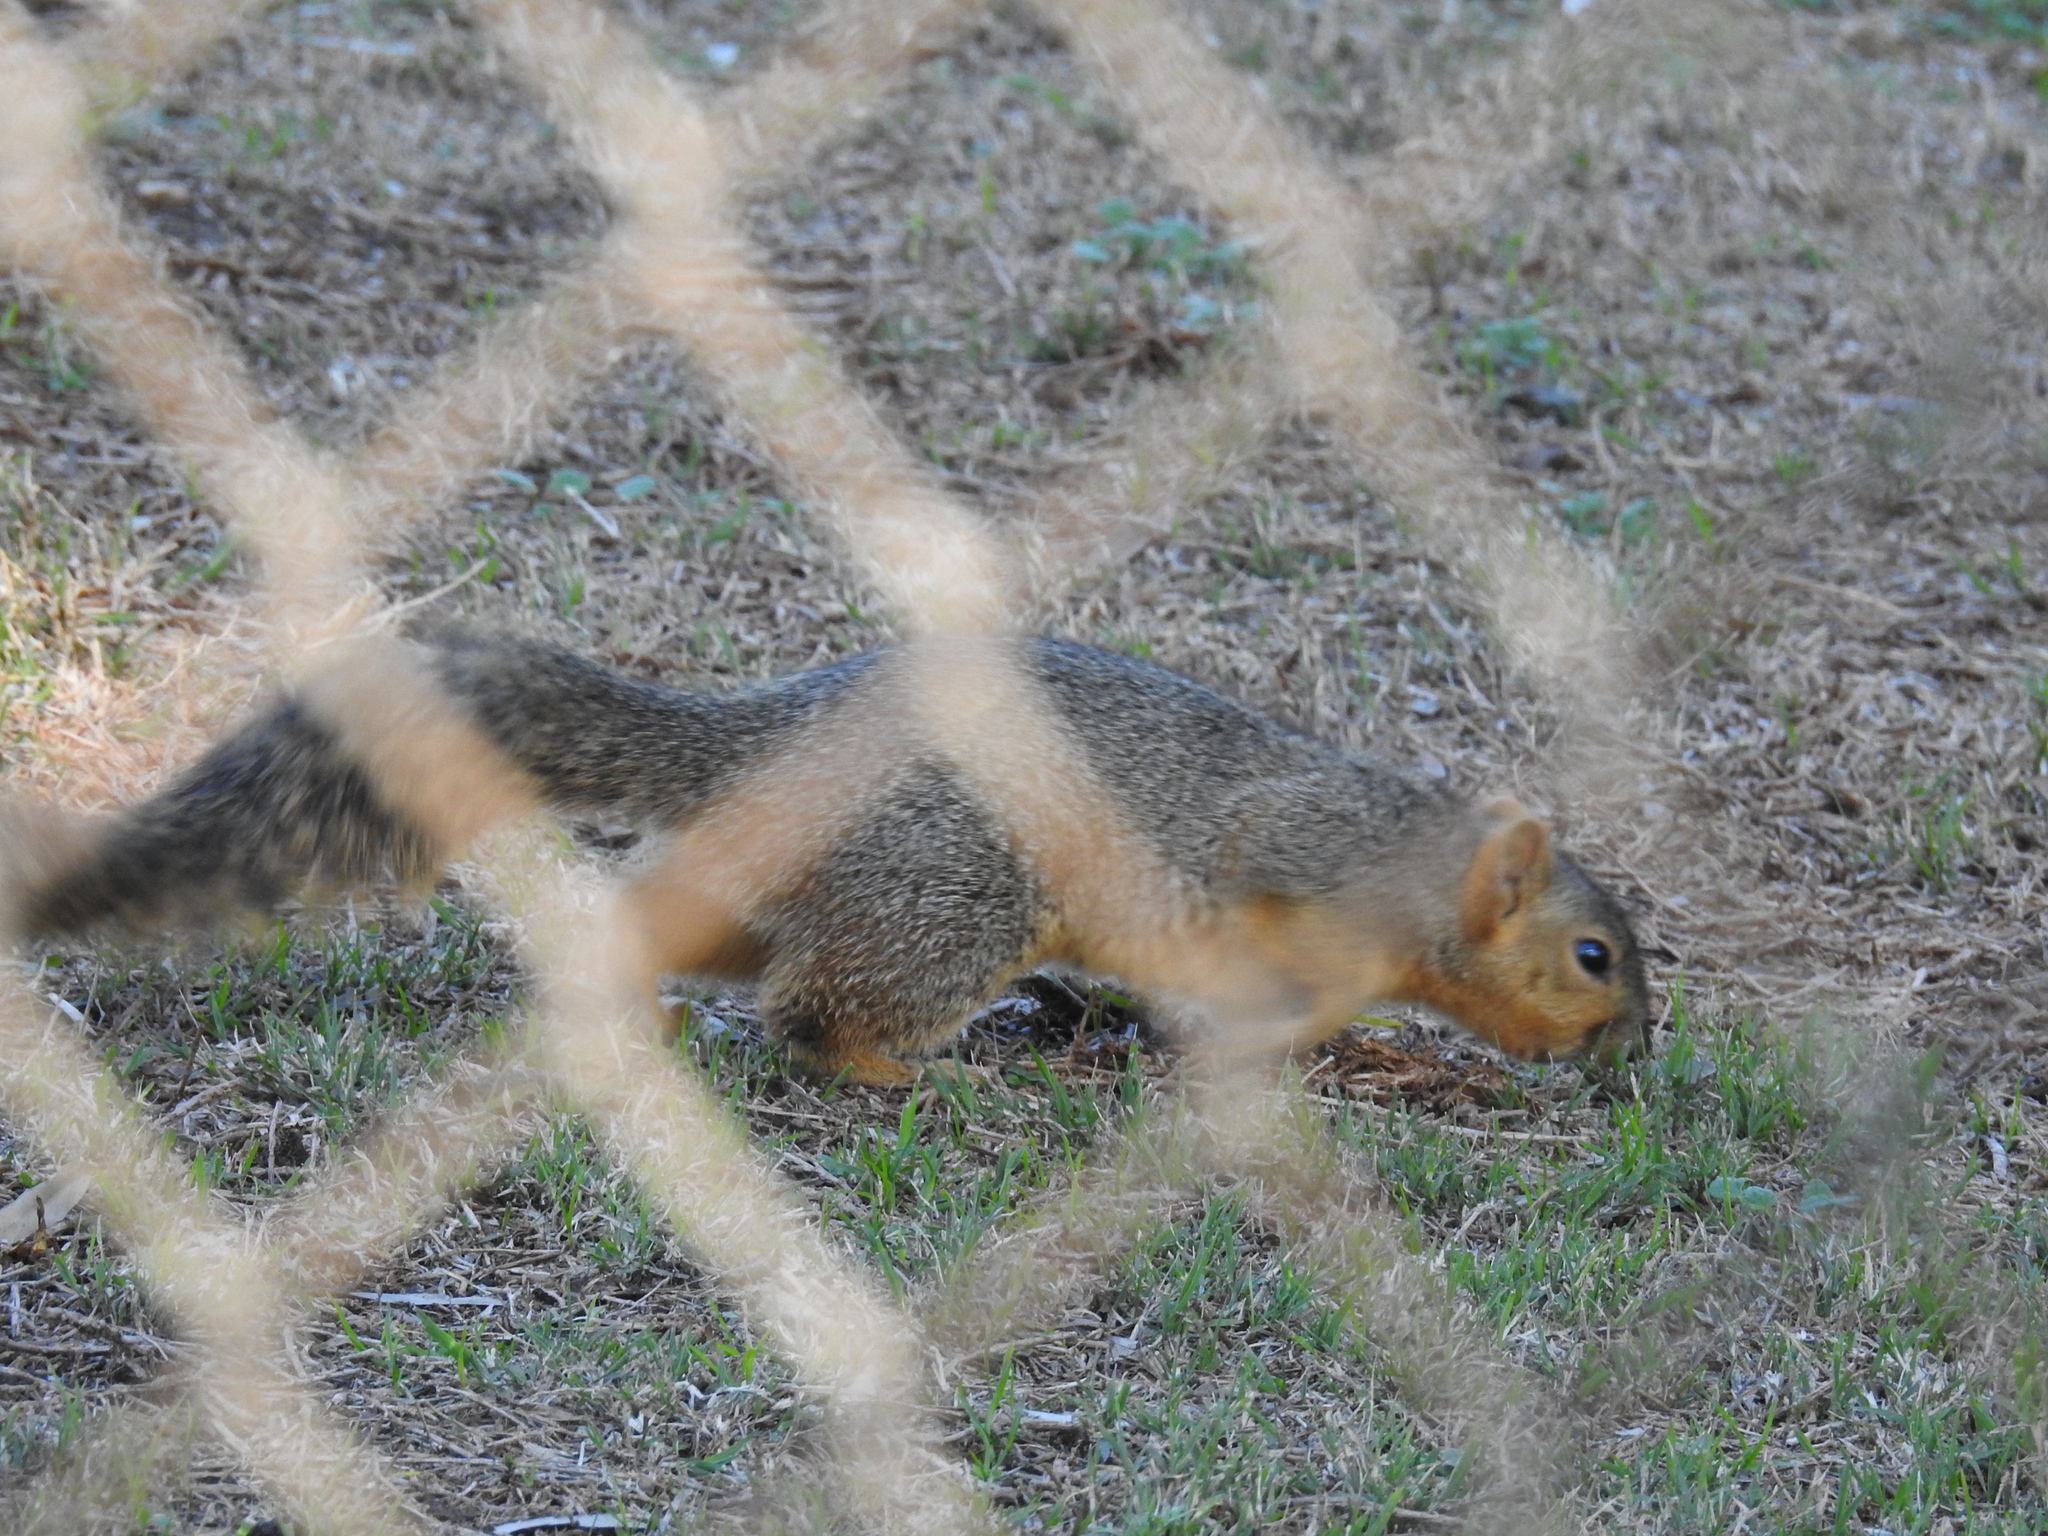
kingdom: Animalia
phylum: Chordata
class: Mammalia
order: Rodentia
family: Sciuridae
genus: Sciurus
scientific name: Sciurus niger
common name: Fox squirrel
